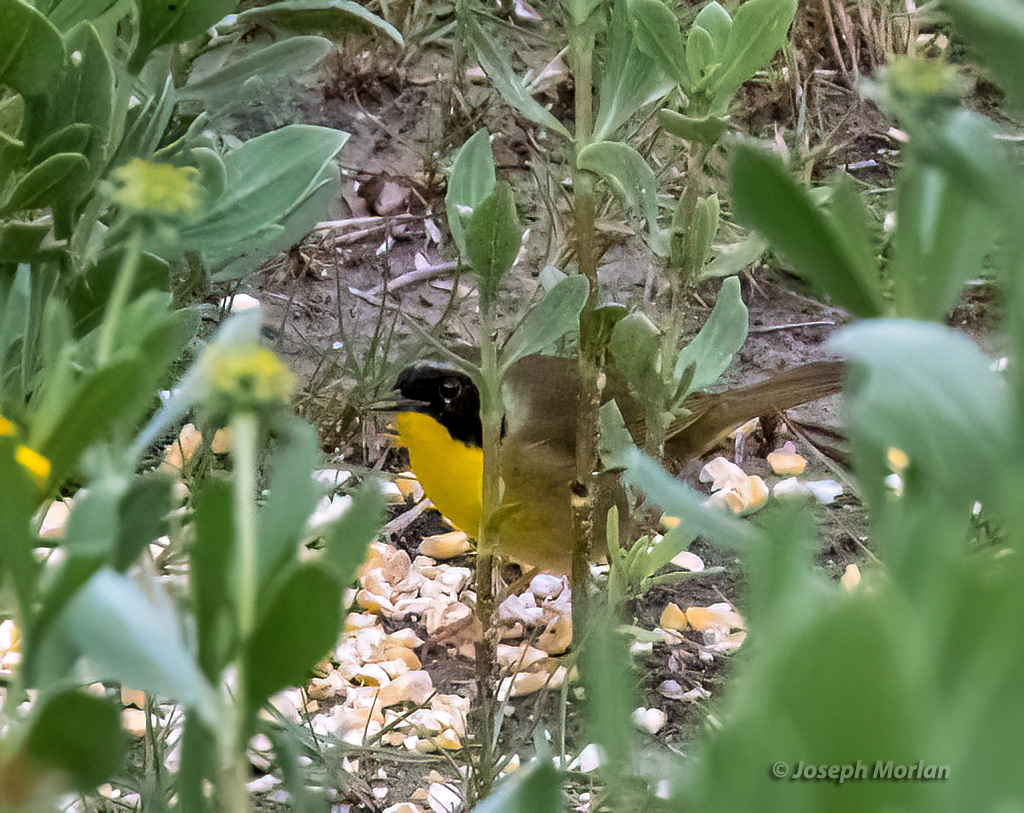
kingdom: Animalia
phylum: Chordata
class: Aves
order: Passeriformes
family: Parulidae
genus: Geothlypis
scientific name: Geothlypis trichas
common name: Common yellowthroat
